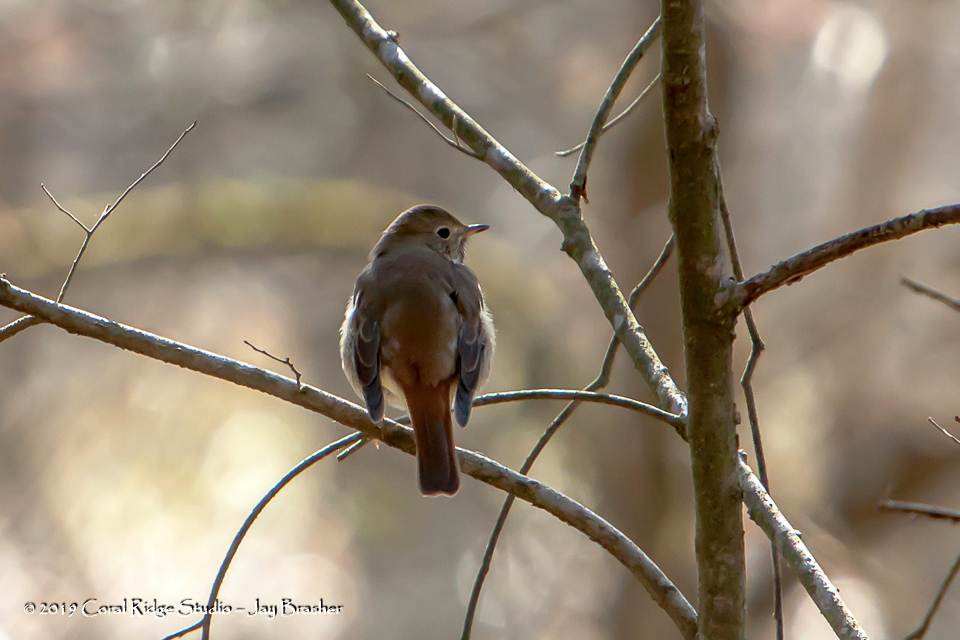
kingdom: Animalia
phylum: Chordata
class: Aves
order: Passeriformes
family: Turdidae
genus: Catharus
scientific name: Catharus guttatus
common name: Hermit thrush
